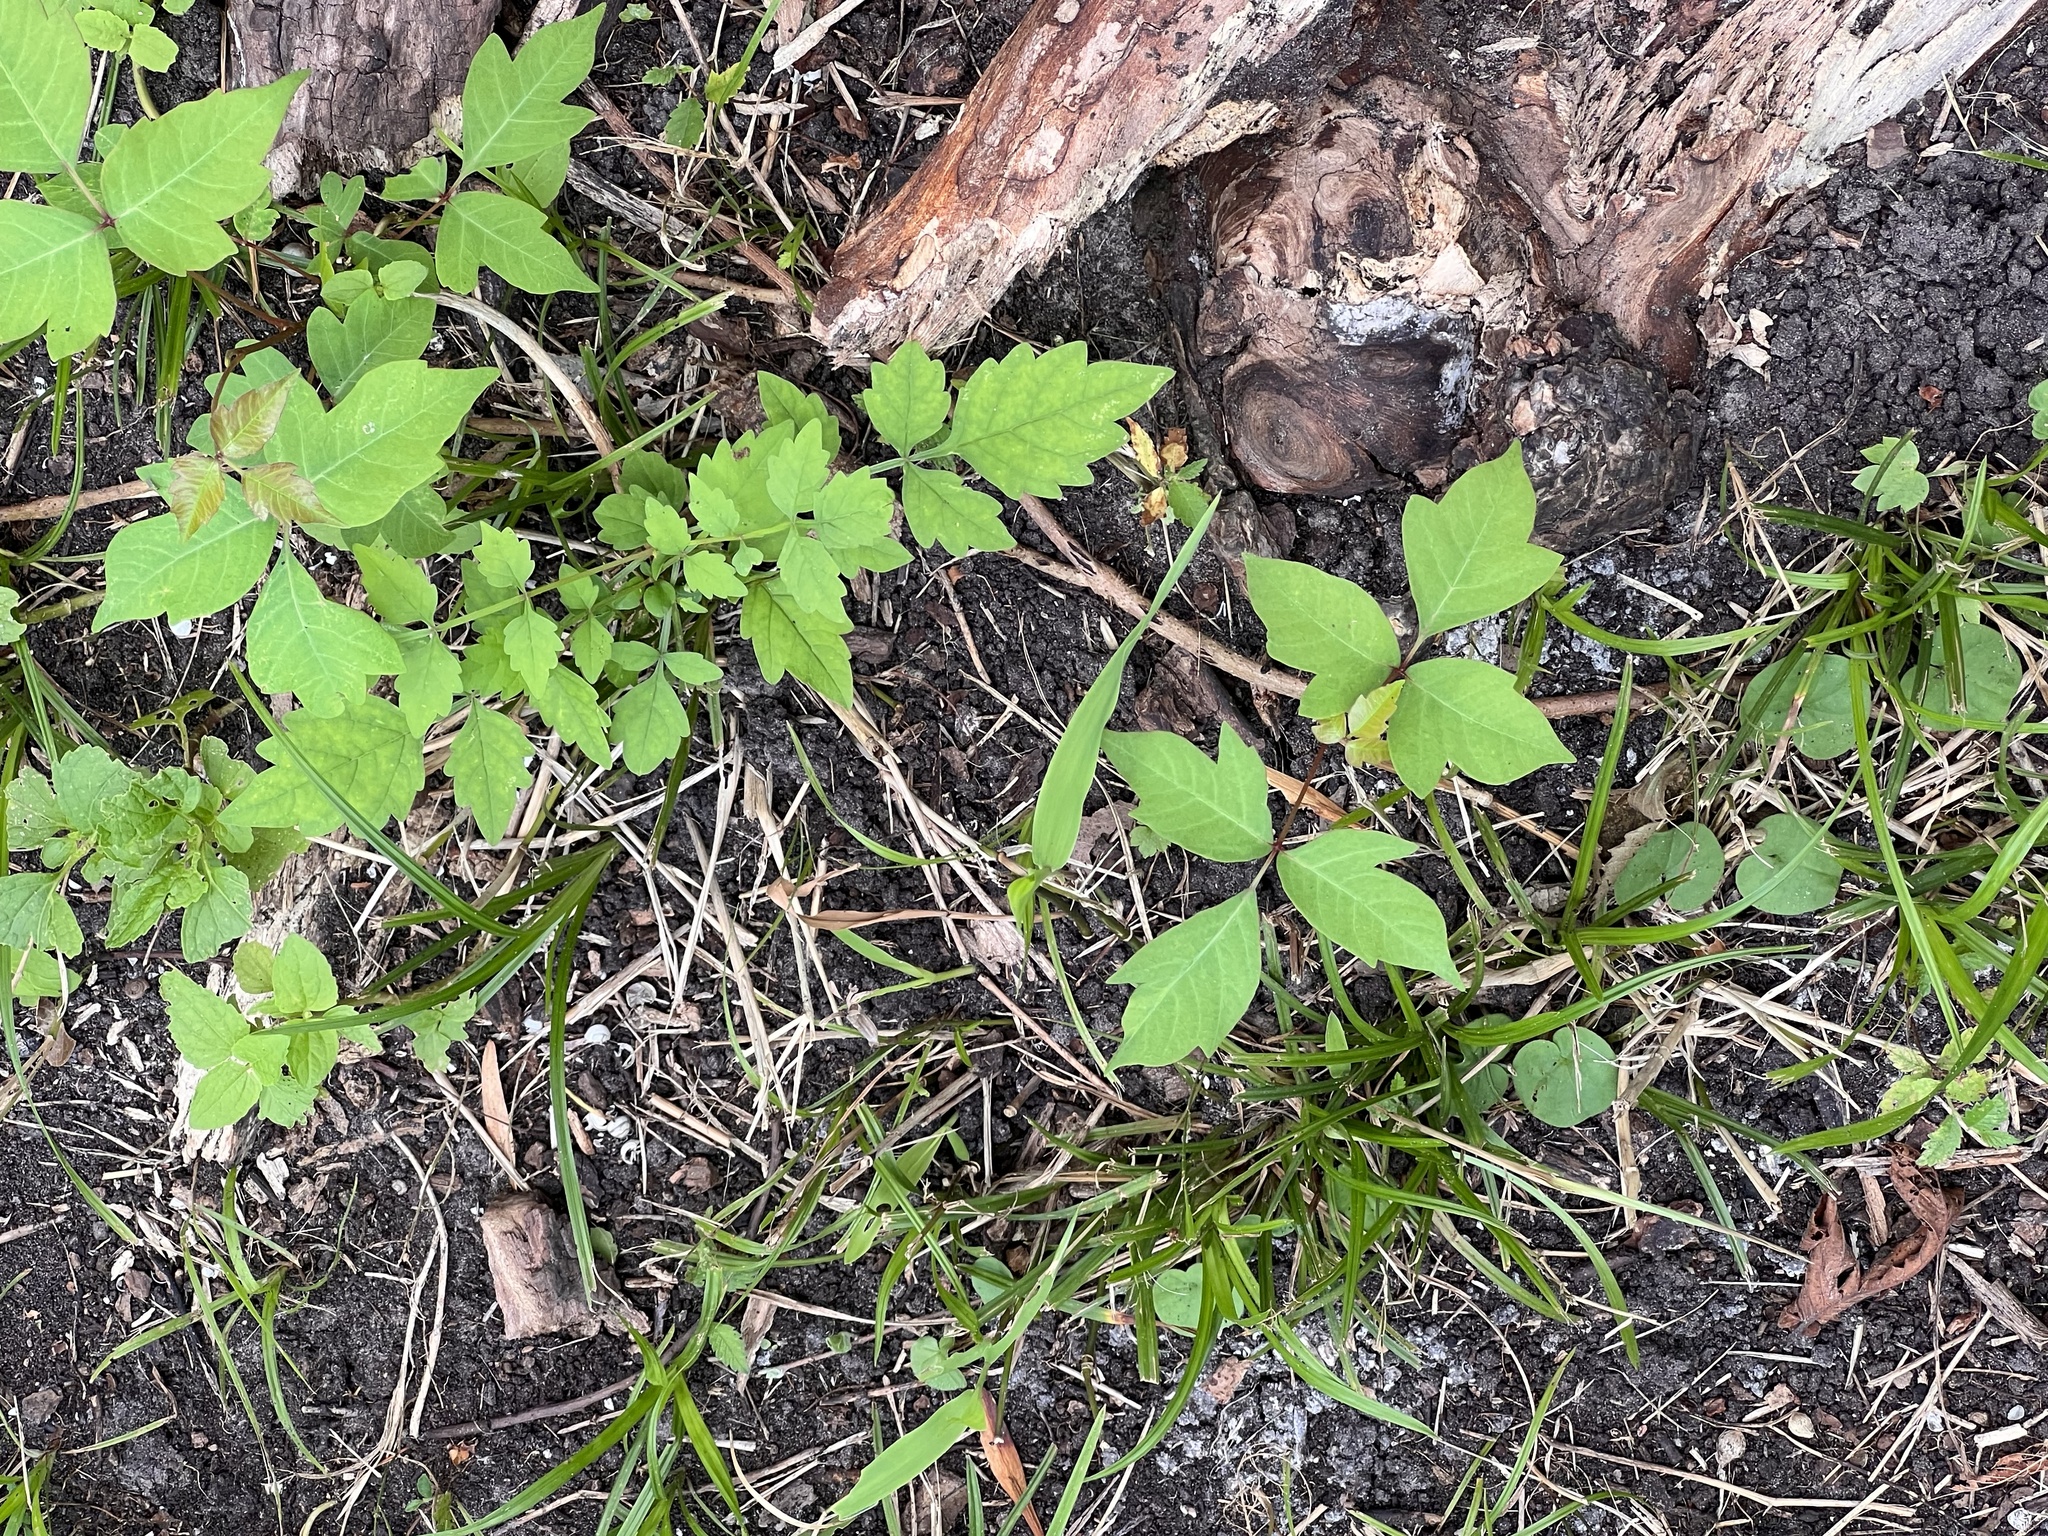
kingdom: Plantae
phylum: Tracheophyta
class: Magnoliopsida
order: Lamiales
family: Bignoniaceae
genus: Campsis
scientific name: Campsis radicans
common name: Trumpet-creeper
